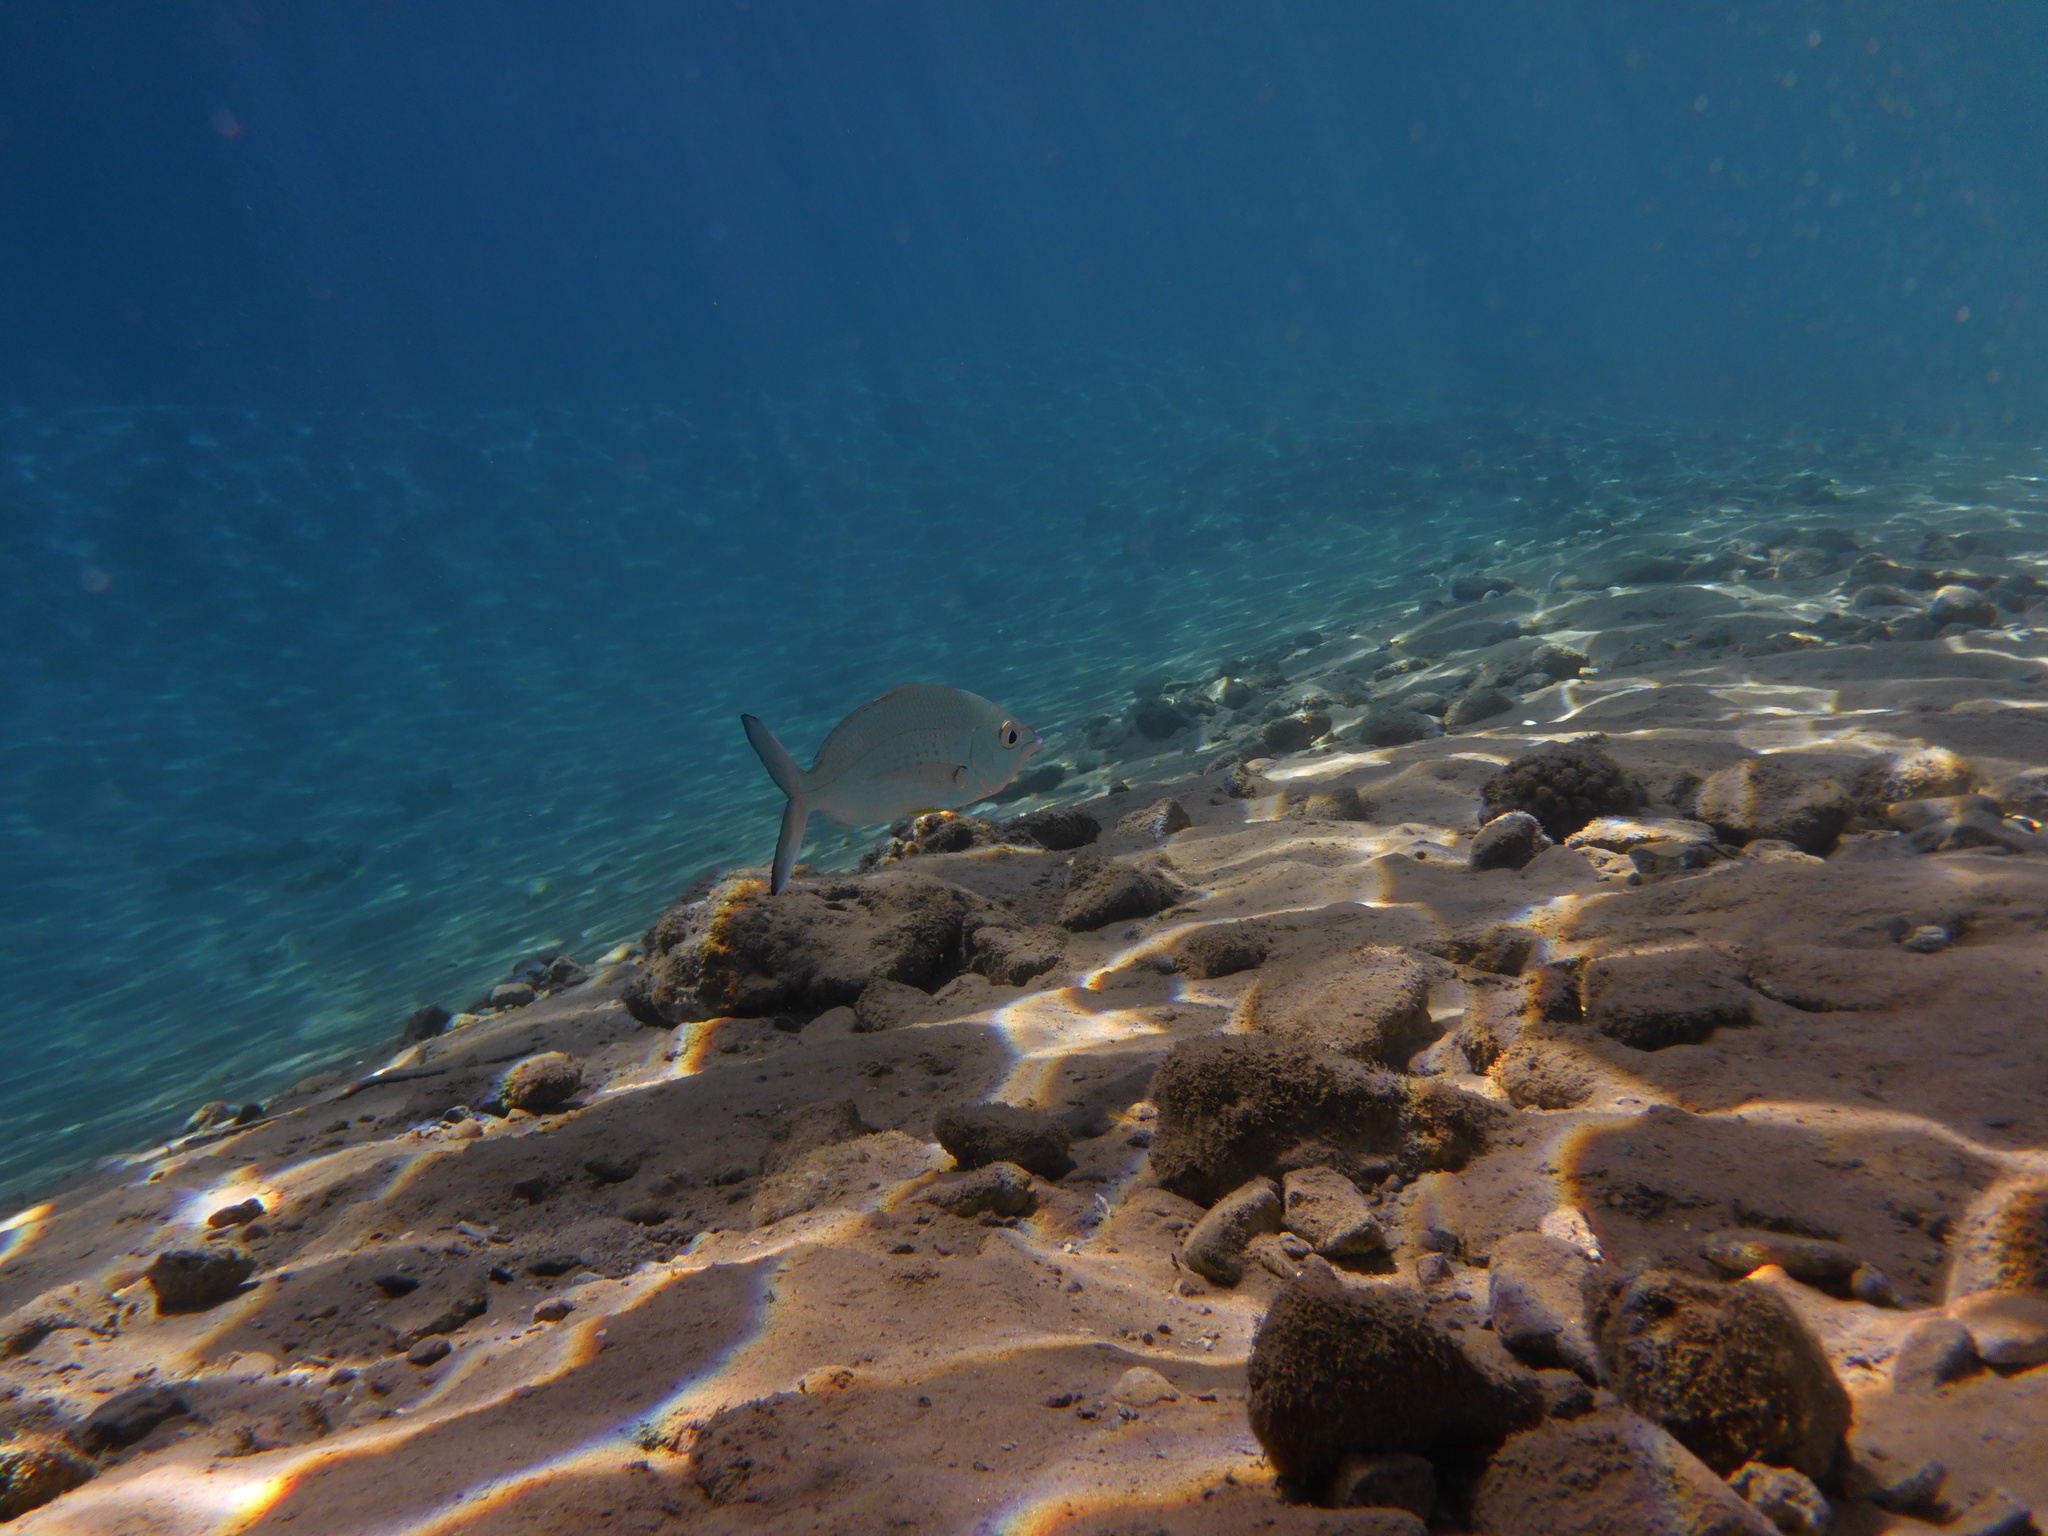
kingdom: Animalia
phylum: Chordata
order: Perciformes
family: Gerreidae
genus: Gerres
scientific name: Gerres longirostris
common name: Strongspine silver-biddy
